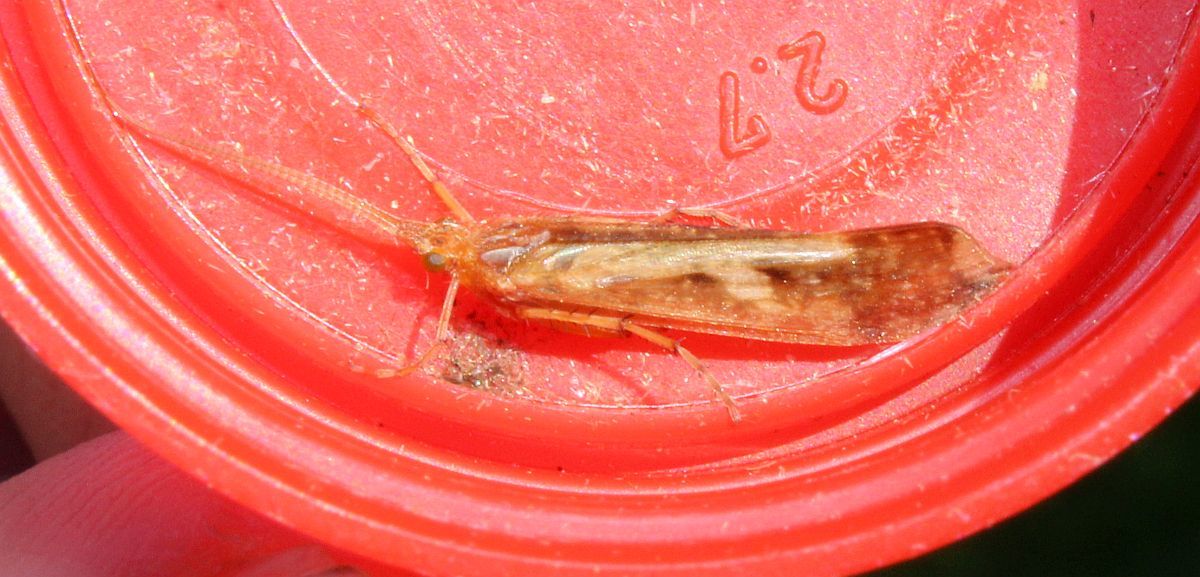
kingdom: Animalia
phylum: Arthropoda
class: Insecta
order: Trichoptera
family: Limnephilidae
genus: Limnephilus
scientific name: Limnephilus lunatus
